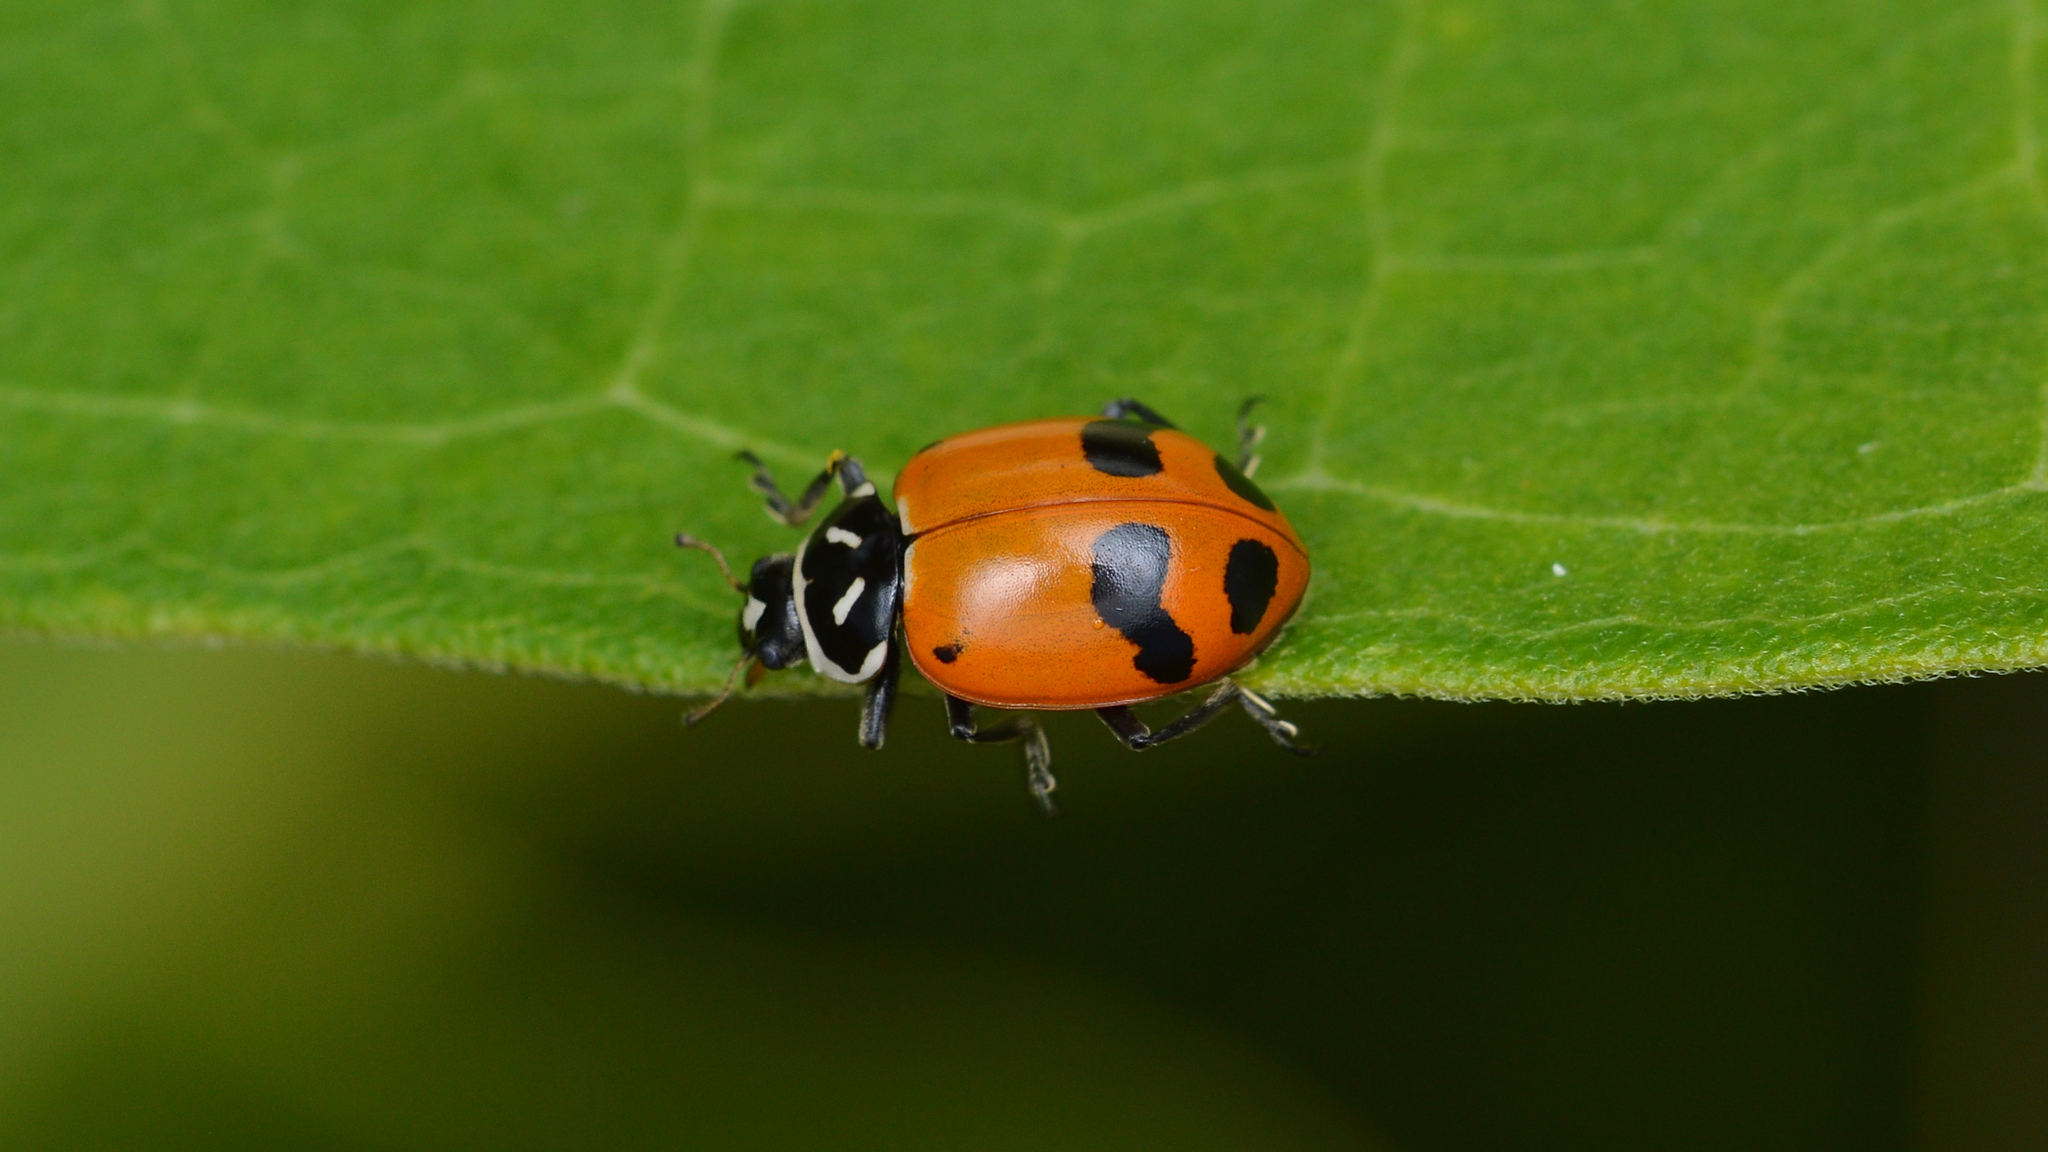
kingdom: Animalia
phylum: Arthropoda
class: Insecta
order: Coleoptera
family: Coccinellidae
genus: Hippodamia
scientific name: Hippodamia glacialis
